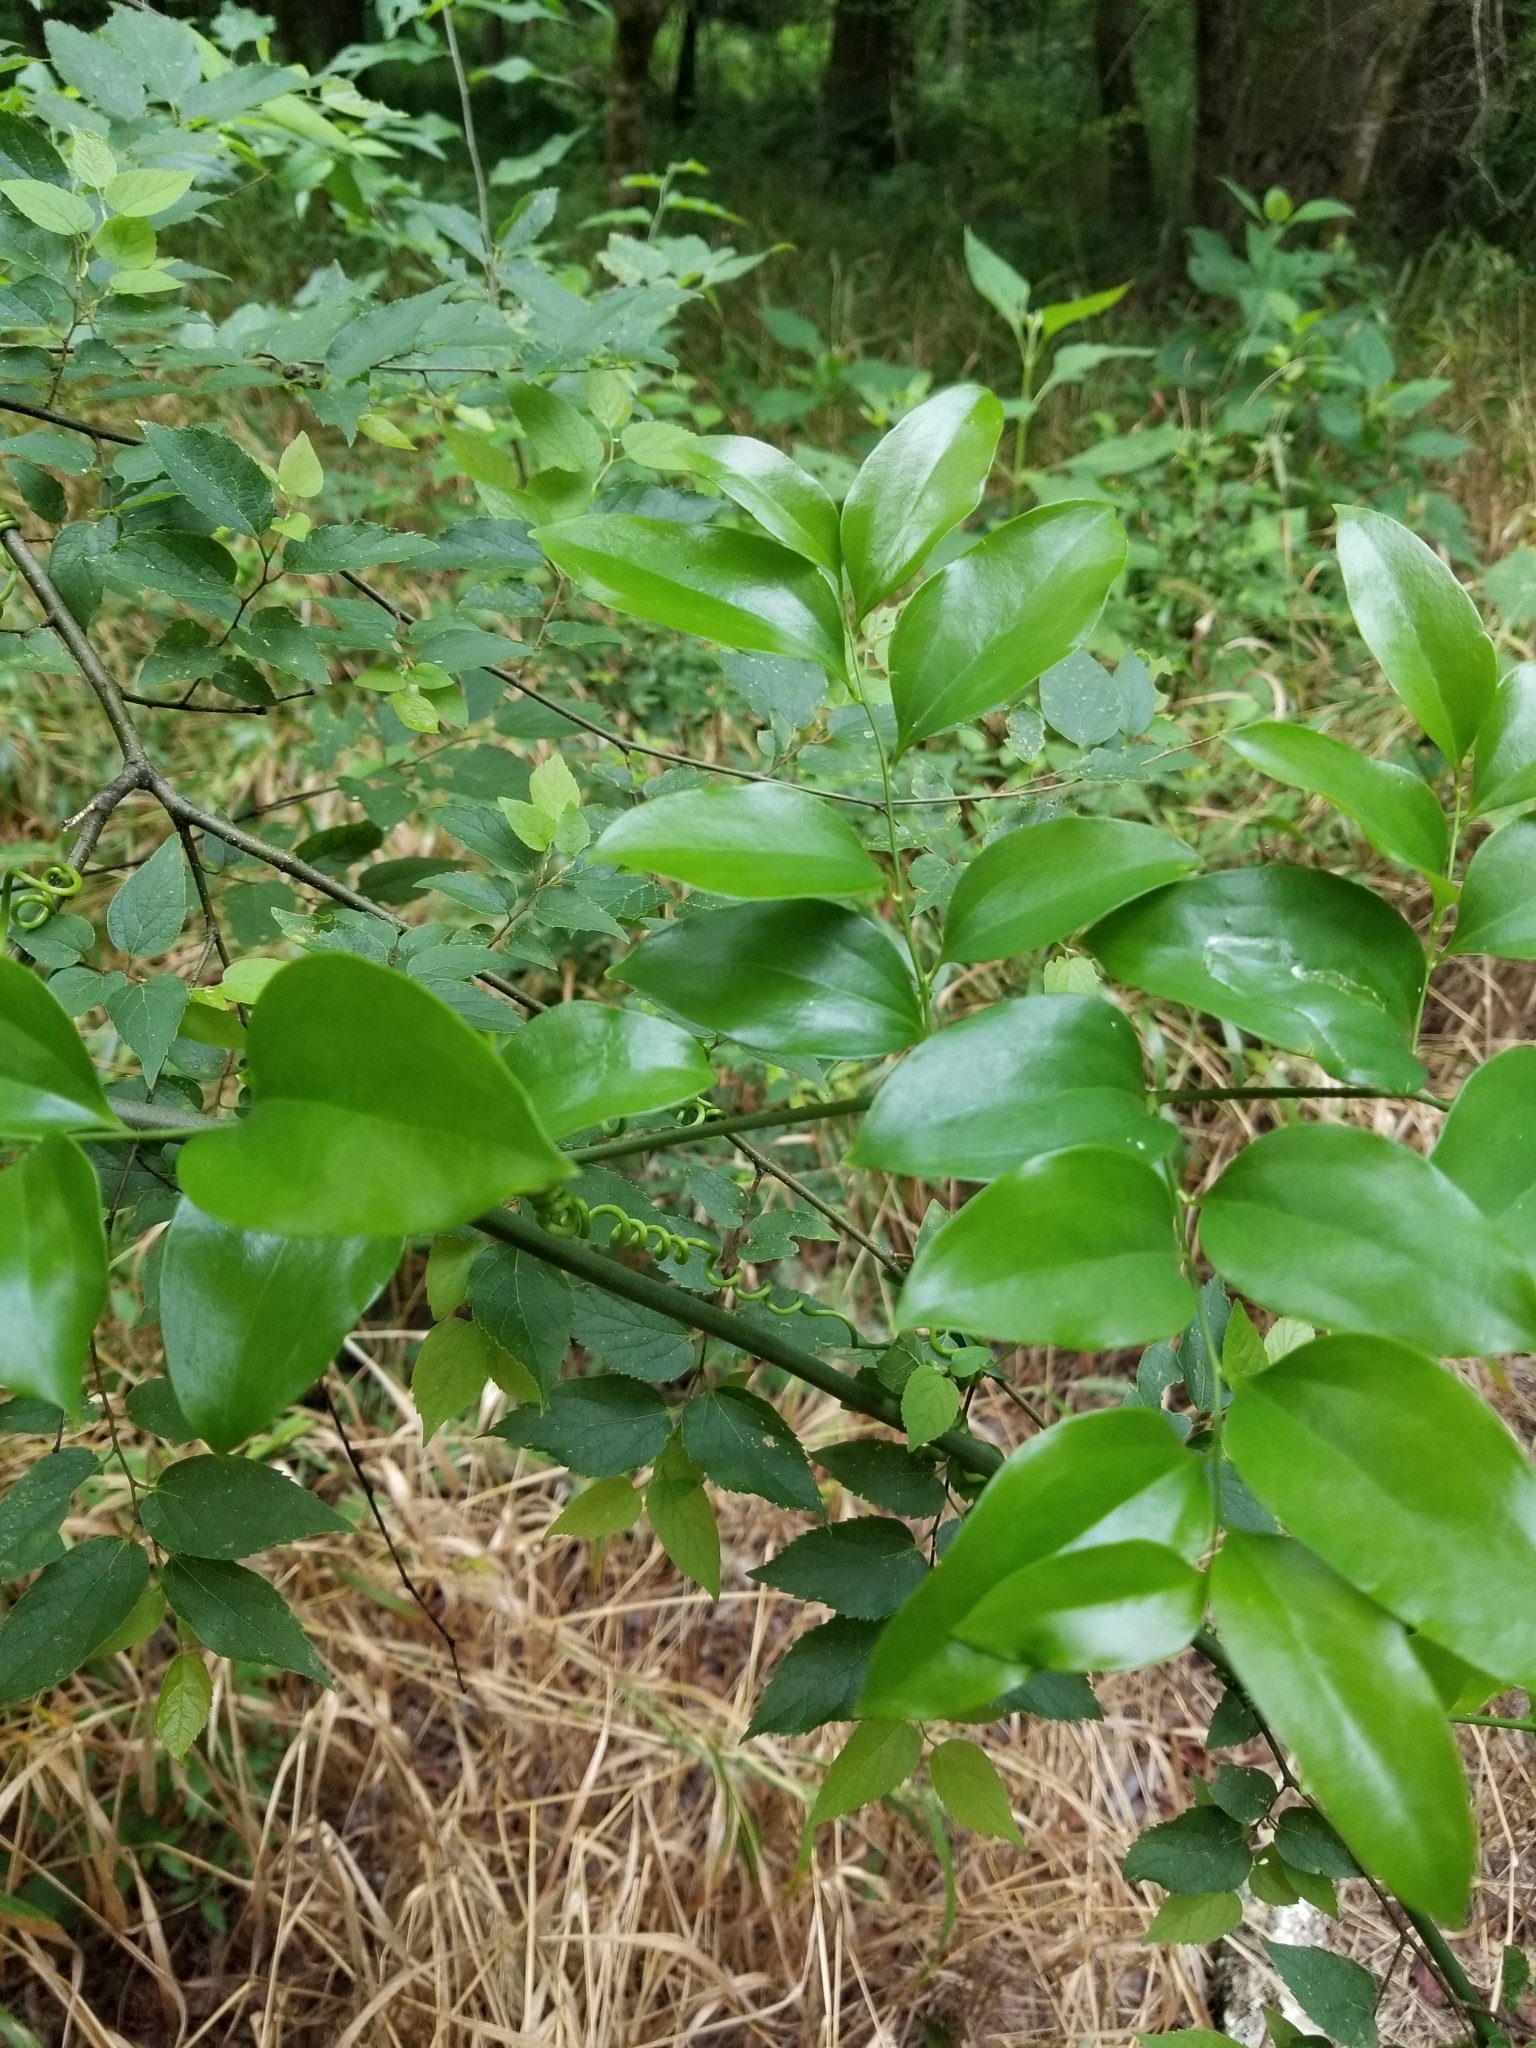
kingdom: Plantae
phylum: Tracheophyta
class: Liliopsida
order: Liliales
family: Smilacaceae
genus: Smilax
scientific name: Smilax maritima
